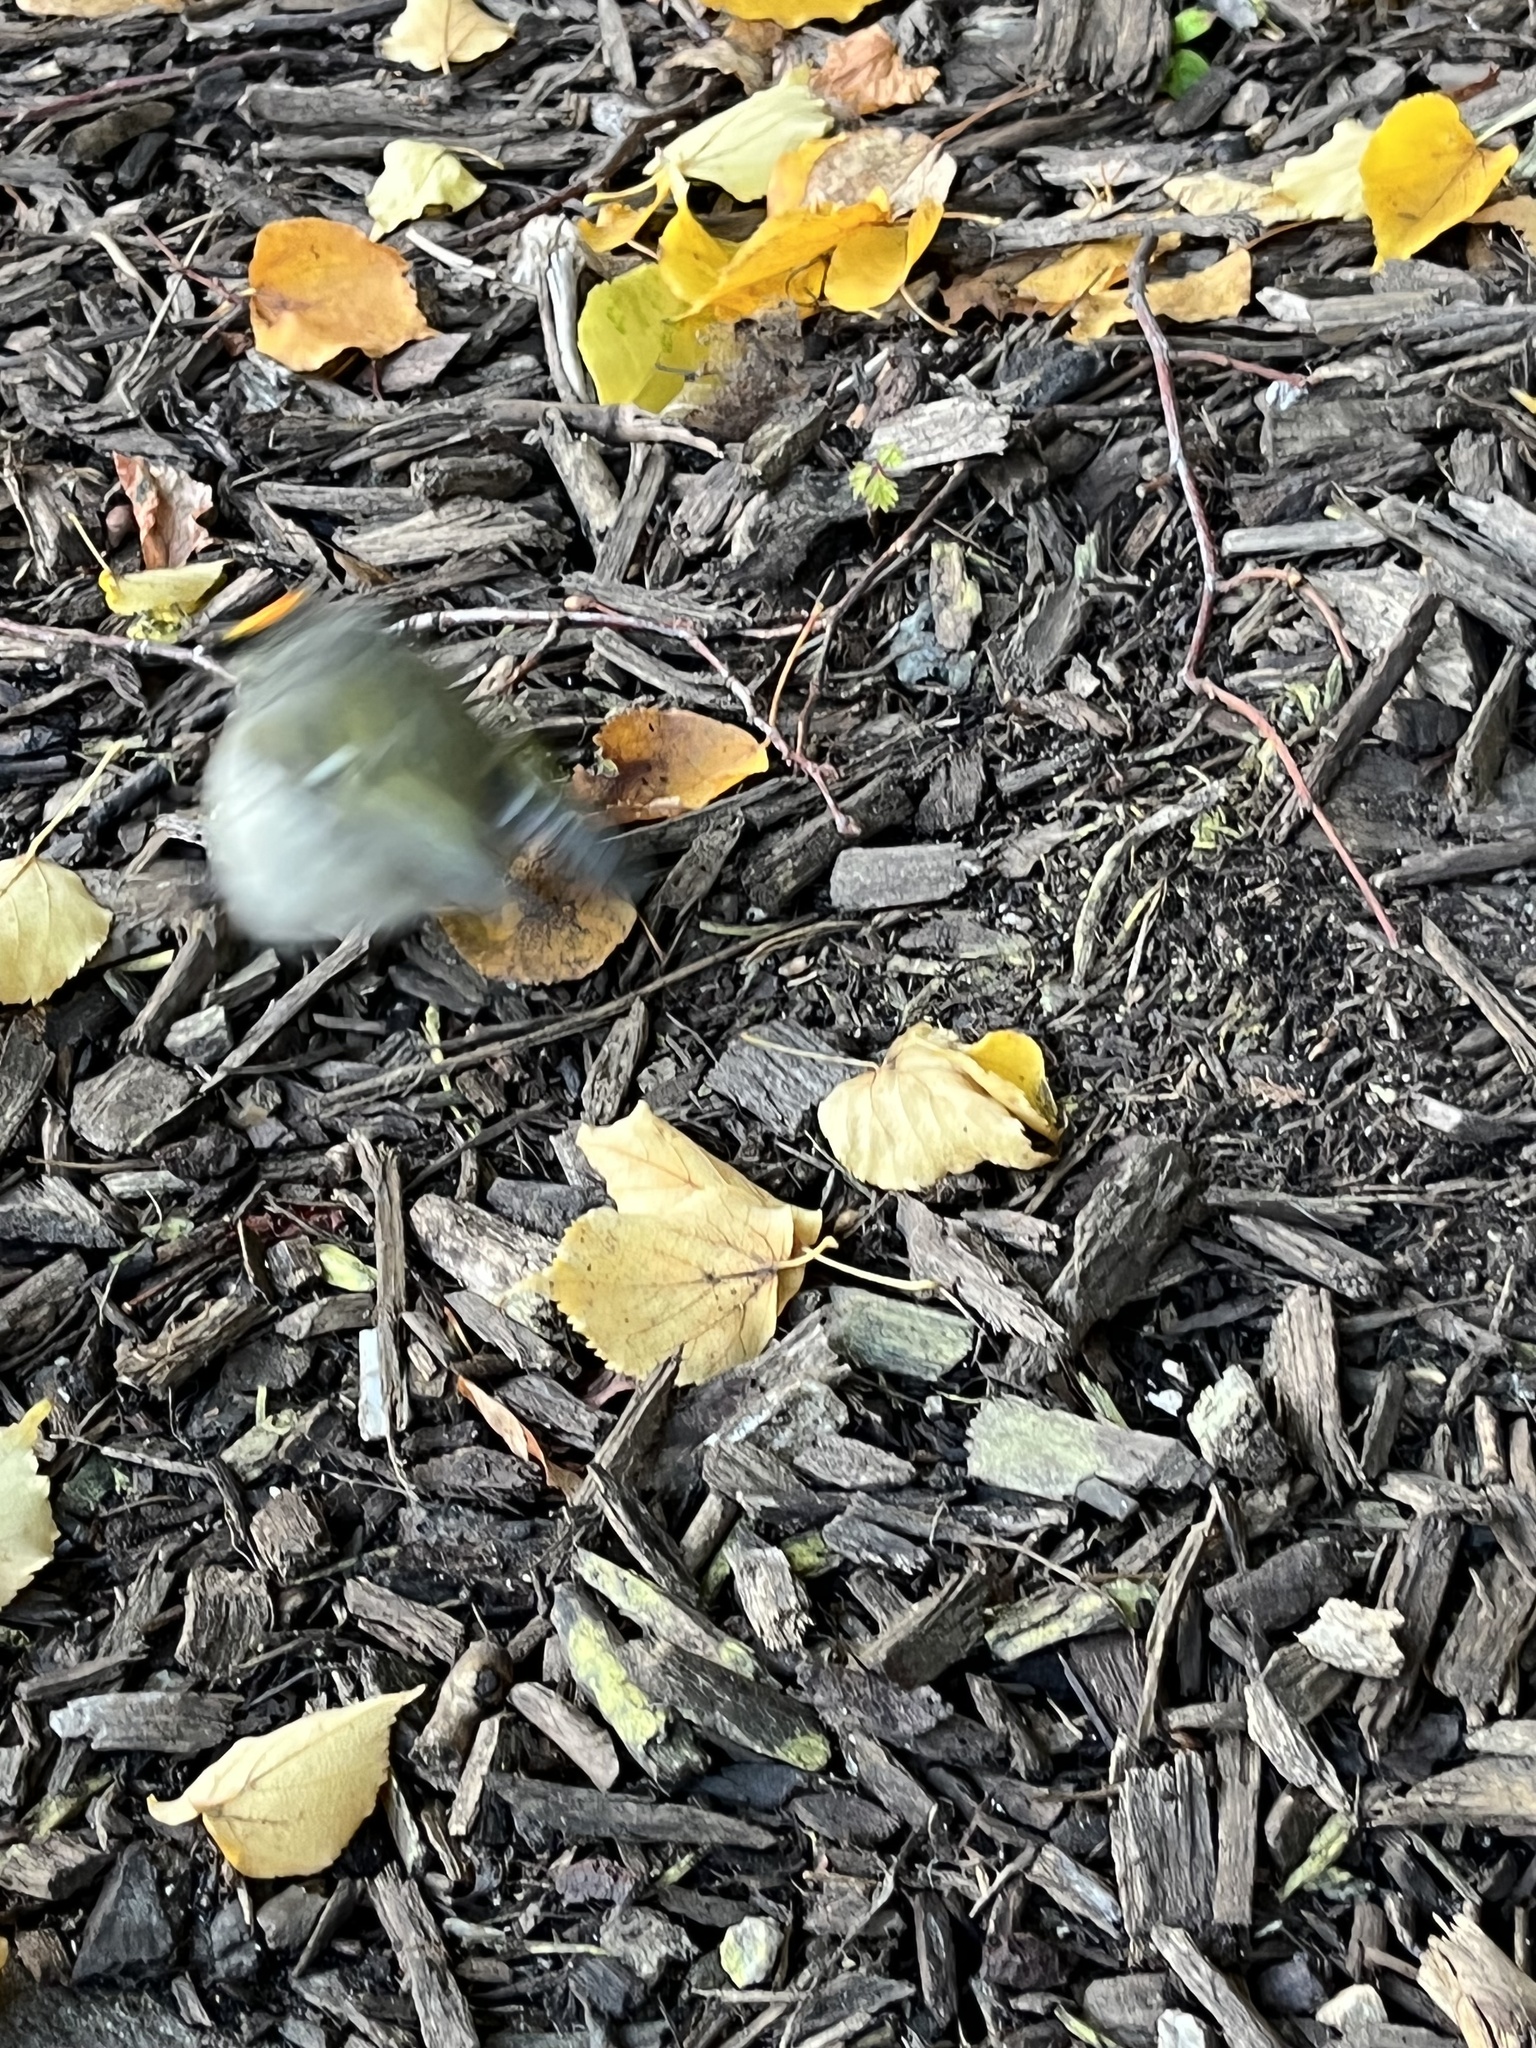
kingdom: Animalia
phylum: Chordata
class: Aves
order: Passeriformes
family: Regulidae
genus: Regulus
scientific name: Regulus satrapa
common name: Golden-crowned kinglet
